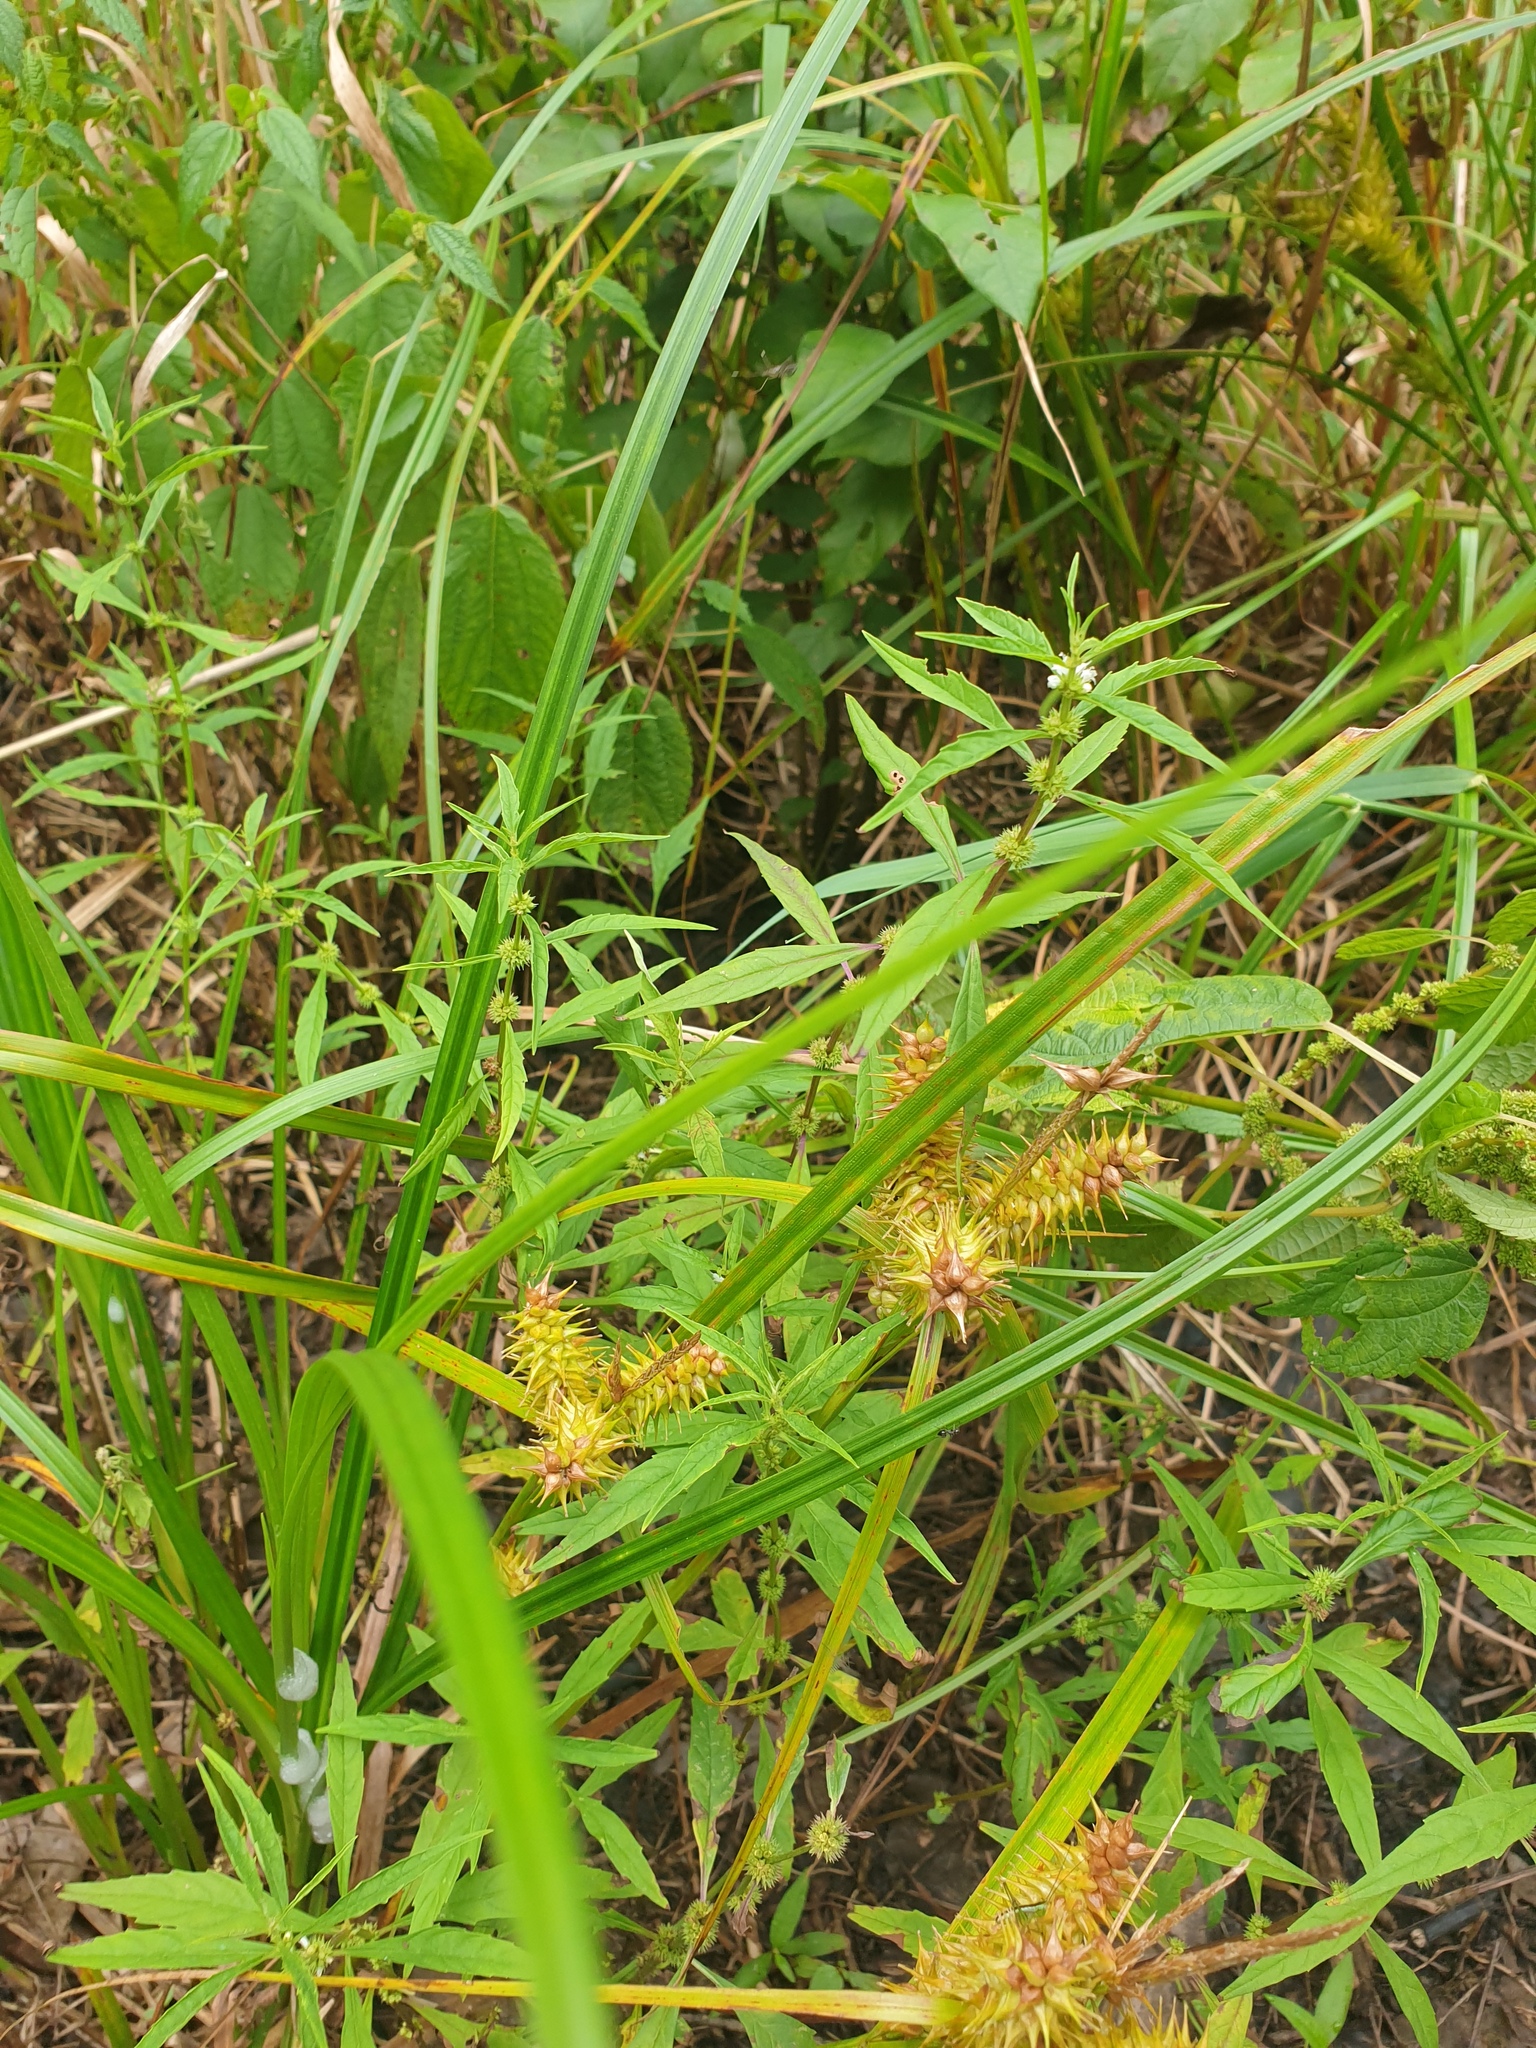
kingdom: Plantae
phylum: Tracheophyta
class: Liliopsida
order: Poales
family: Cyperaceae
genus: Carex
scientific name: Carex retrorsa
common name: Knot-sheath sedge
